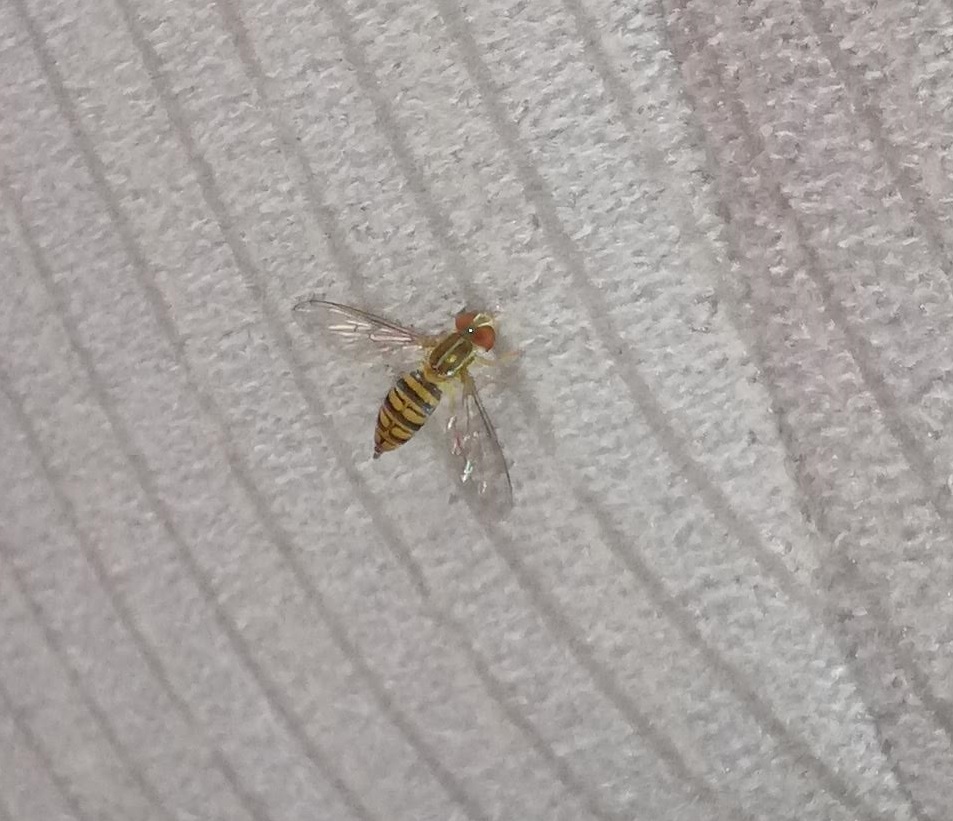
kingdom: Animalia
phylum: Arthropoda
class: Insecta
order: Diptera
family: Syrphidae
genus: Toxomerus
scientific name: Toxomerus politus
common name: Maize calligrapher
